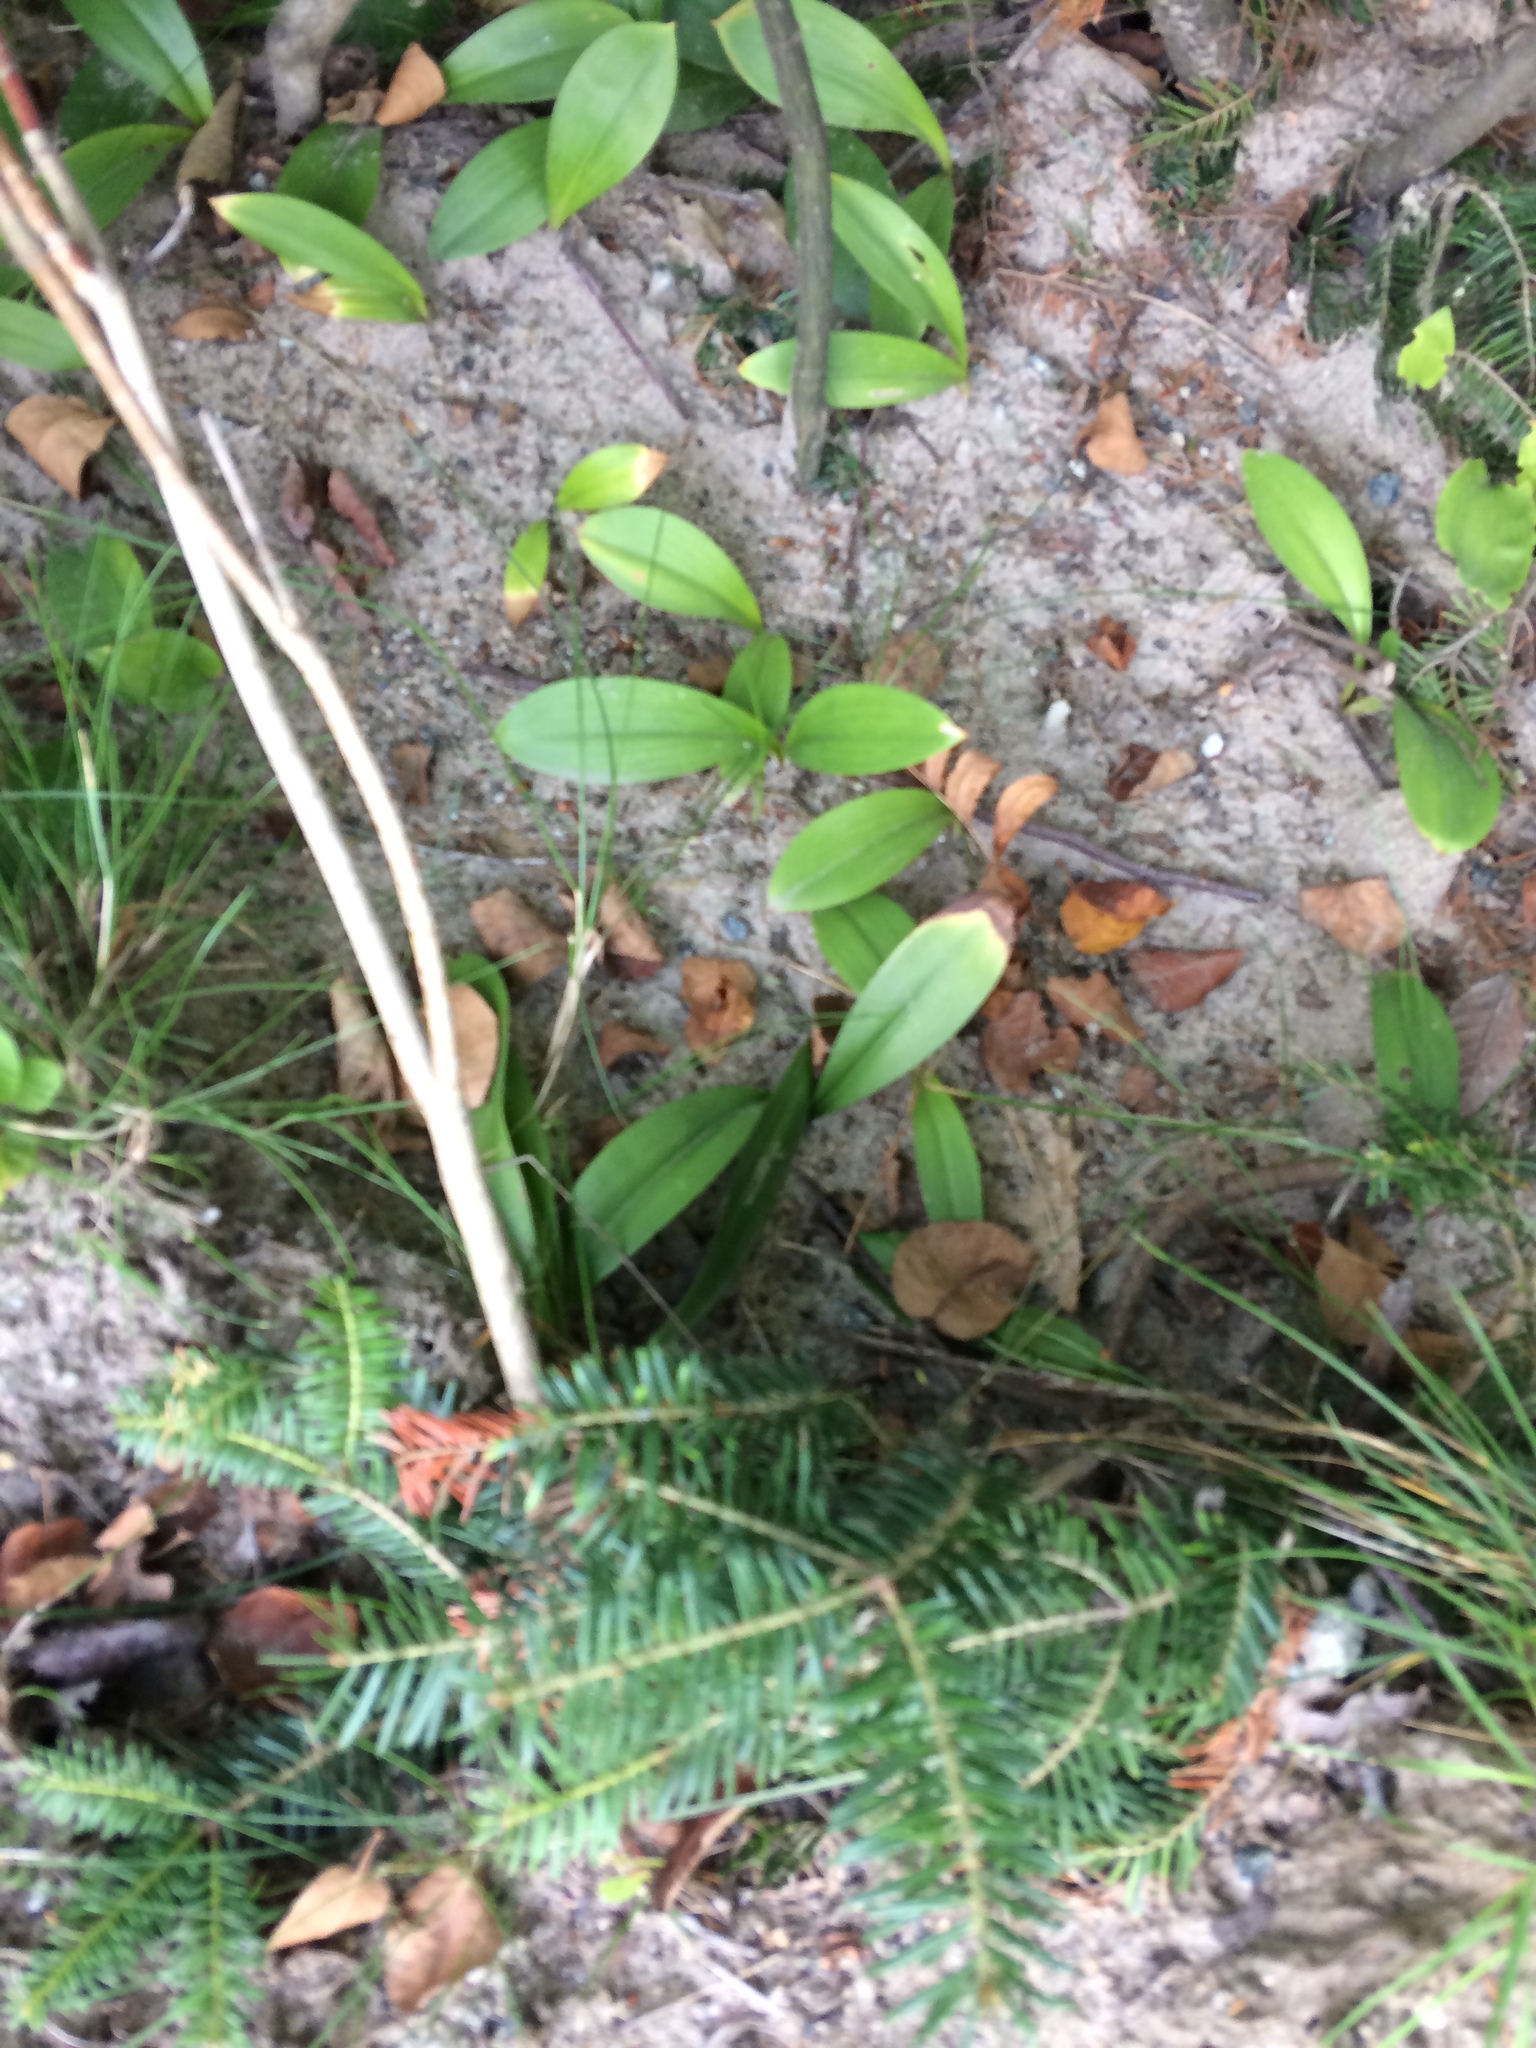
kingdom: Plantae
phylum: Tracheophyta
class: Liliopsida
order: Liliales
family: Liliaceae
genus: Clintonia
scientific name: Clintonia borealis
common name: Yellow clintonia
